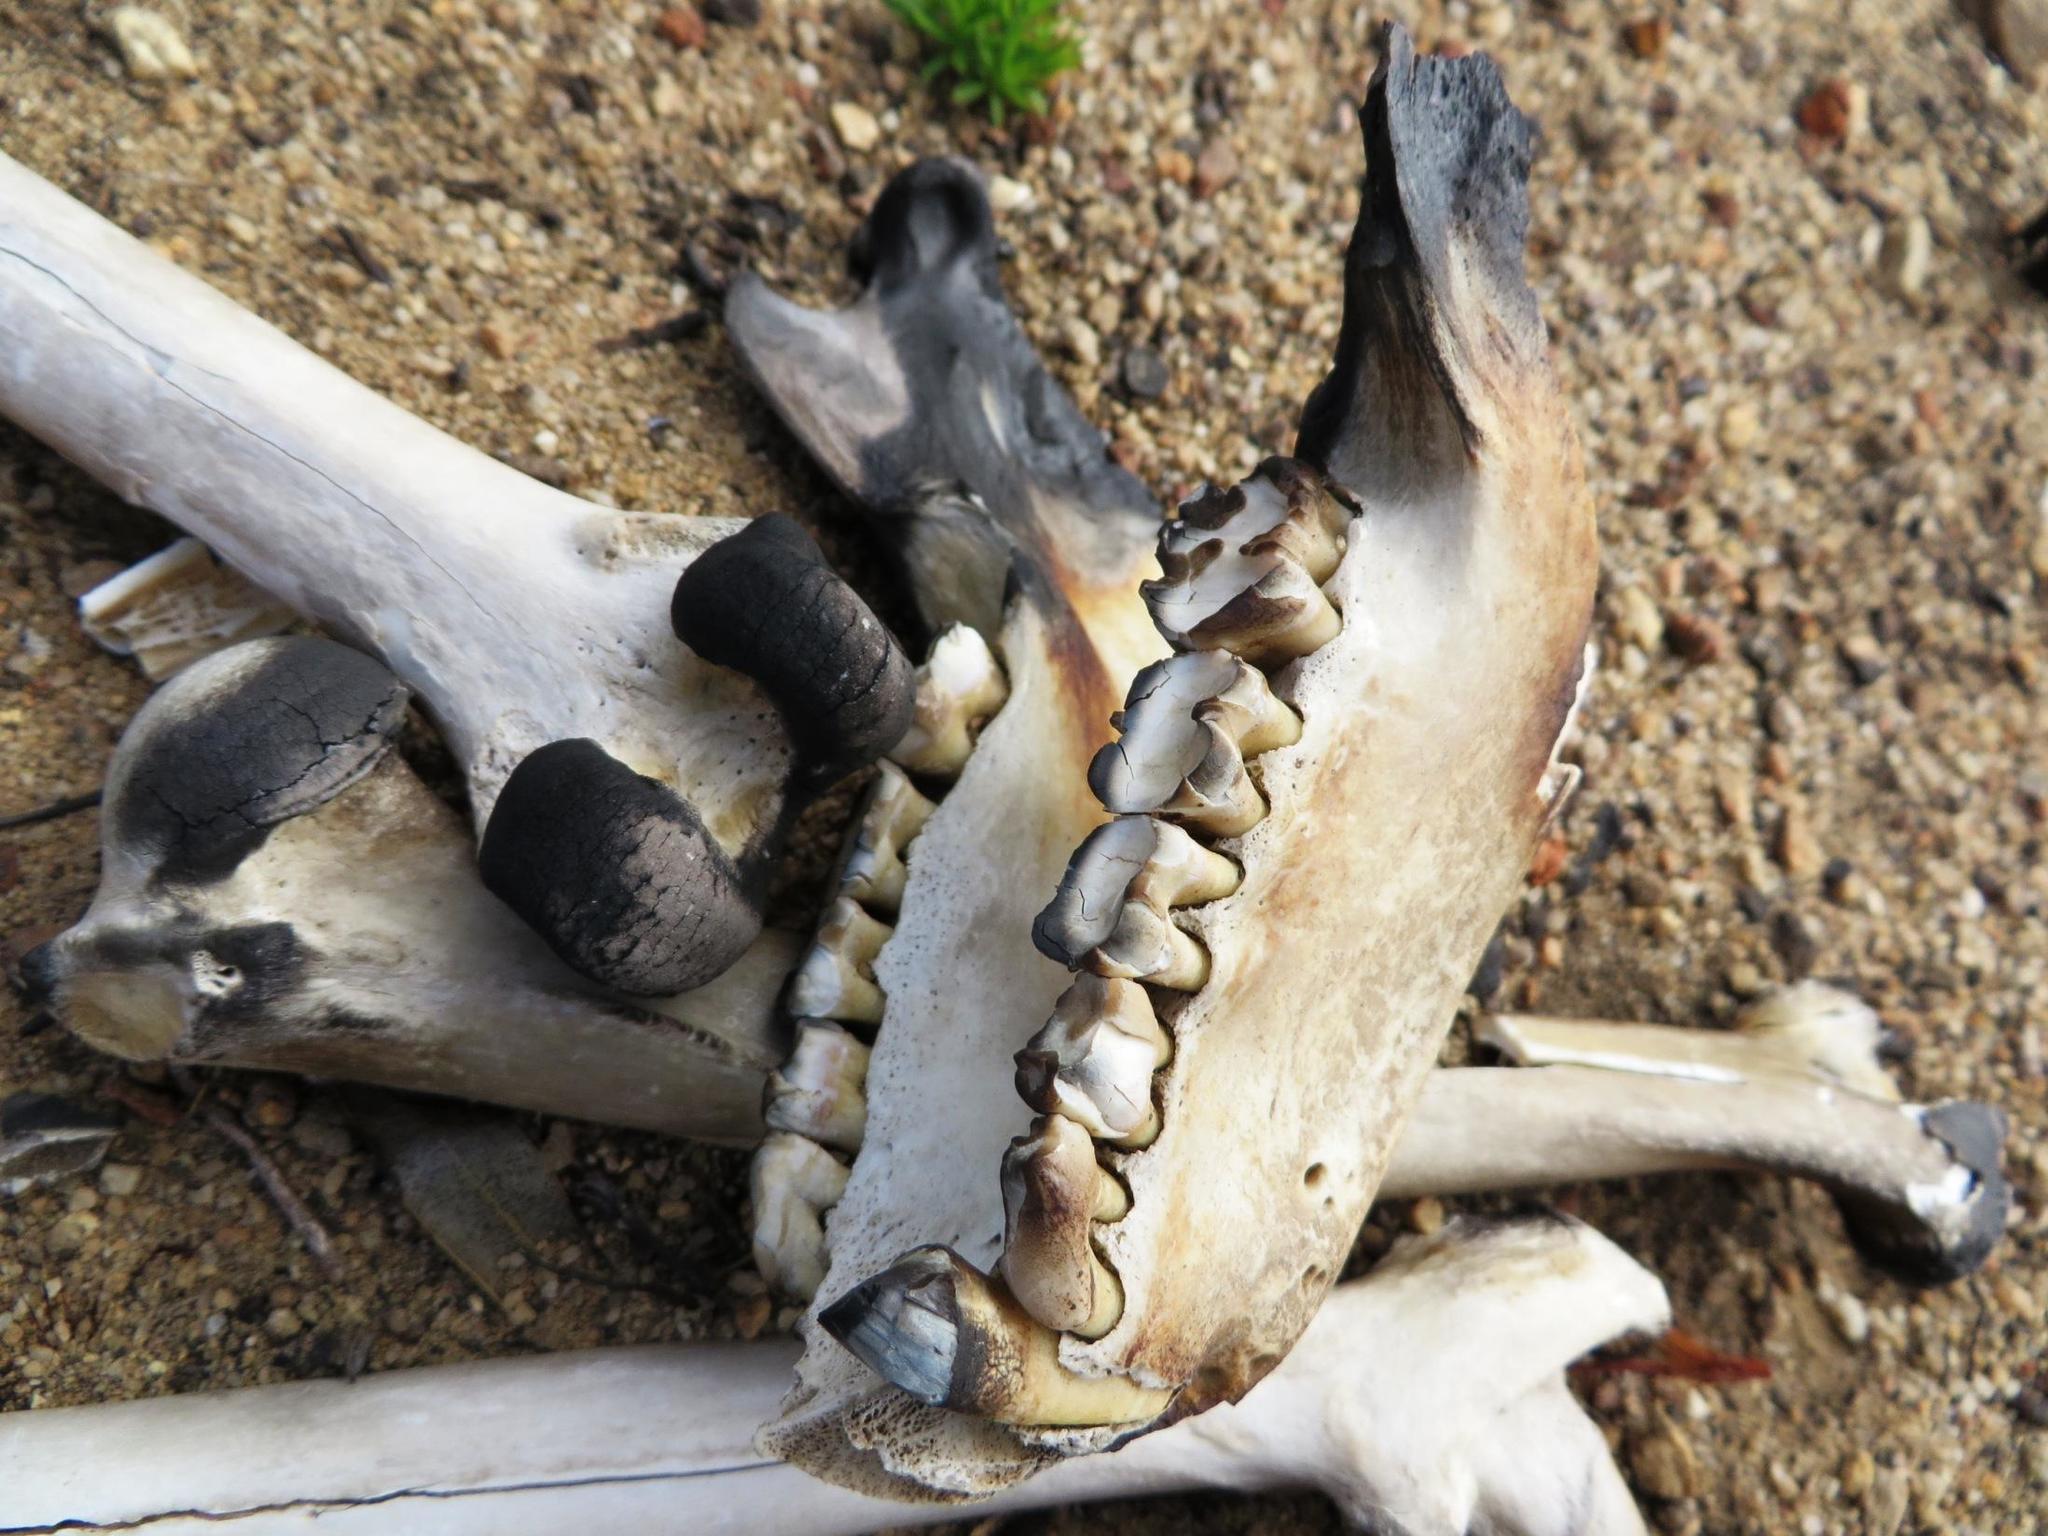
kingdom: Animalia
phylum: Chordata
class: Mammalia
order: Primates
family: Cercopithecidae
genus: Papio
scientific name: Papio ursinus
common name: Chacma baboon
